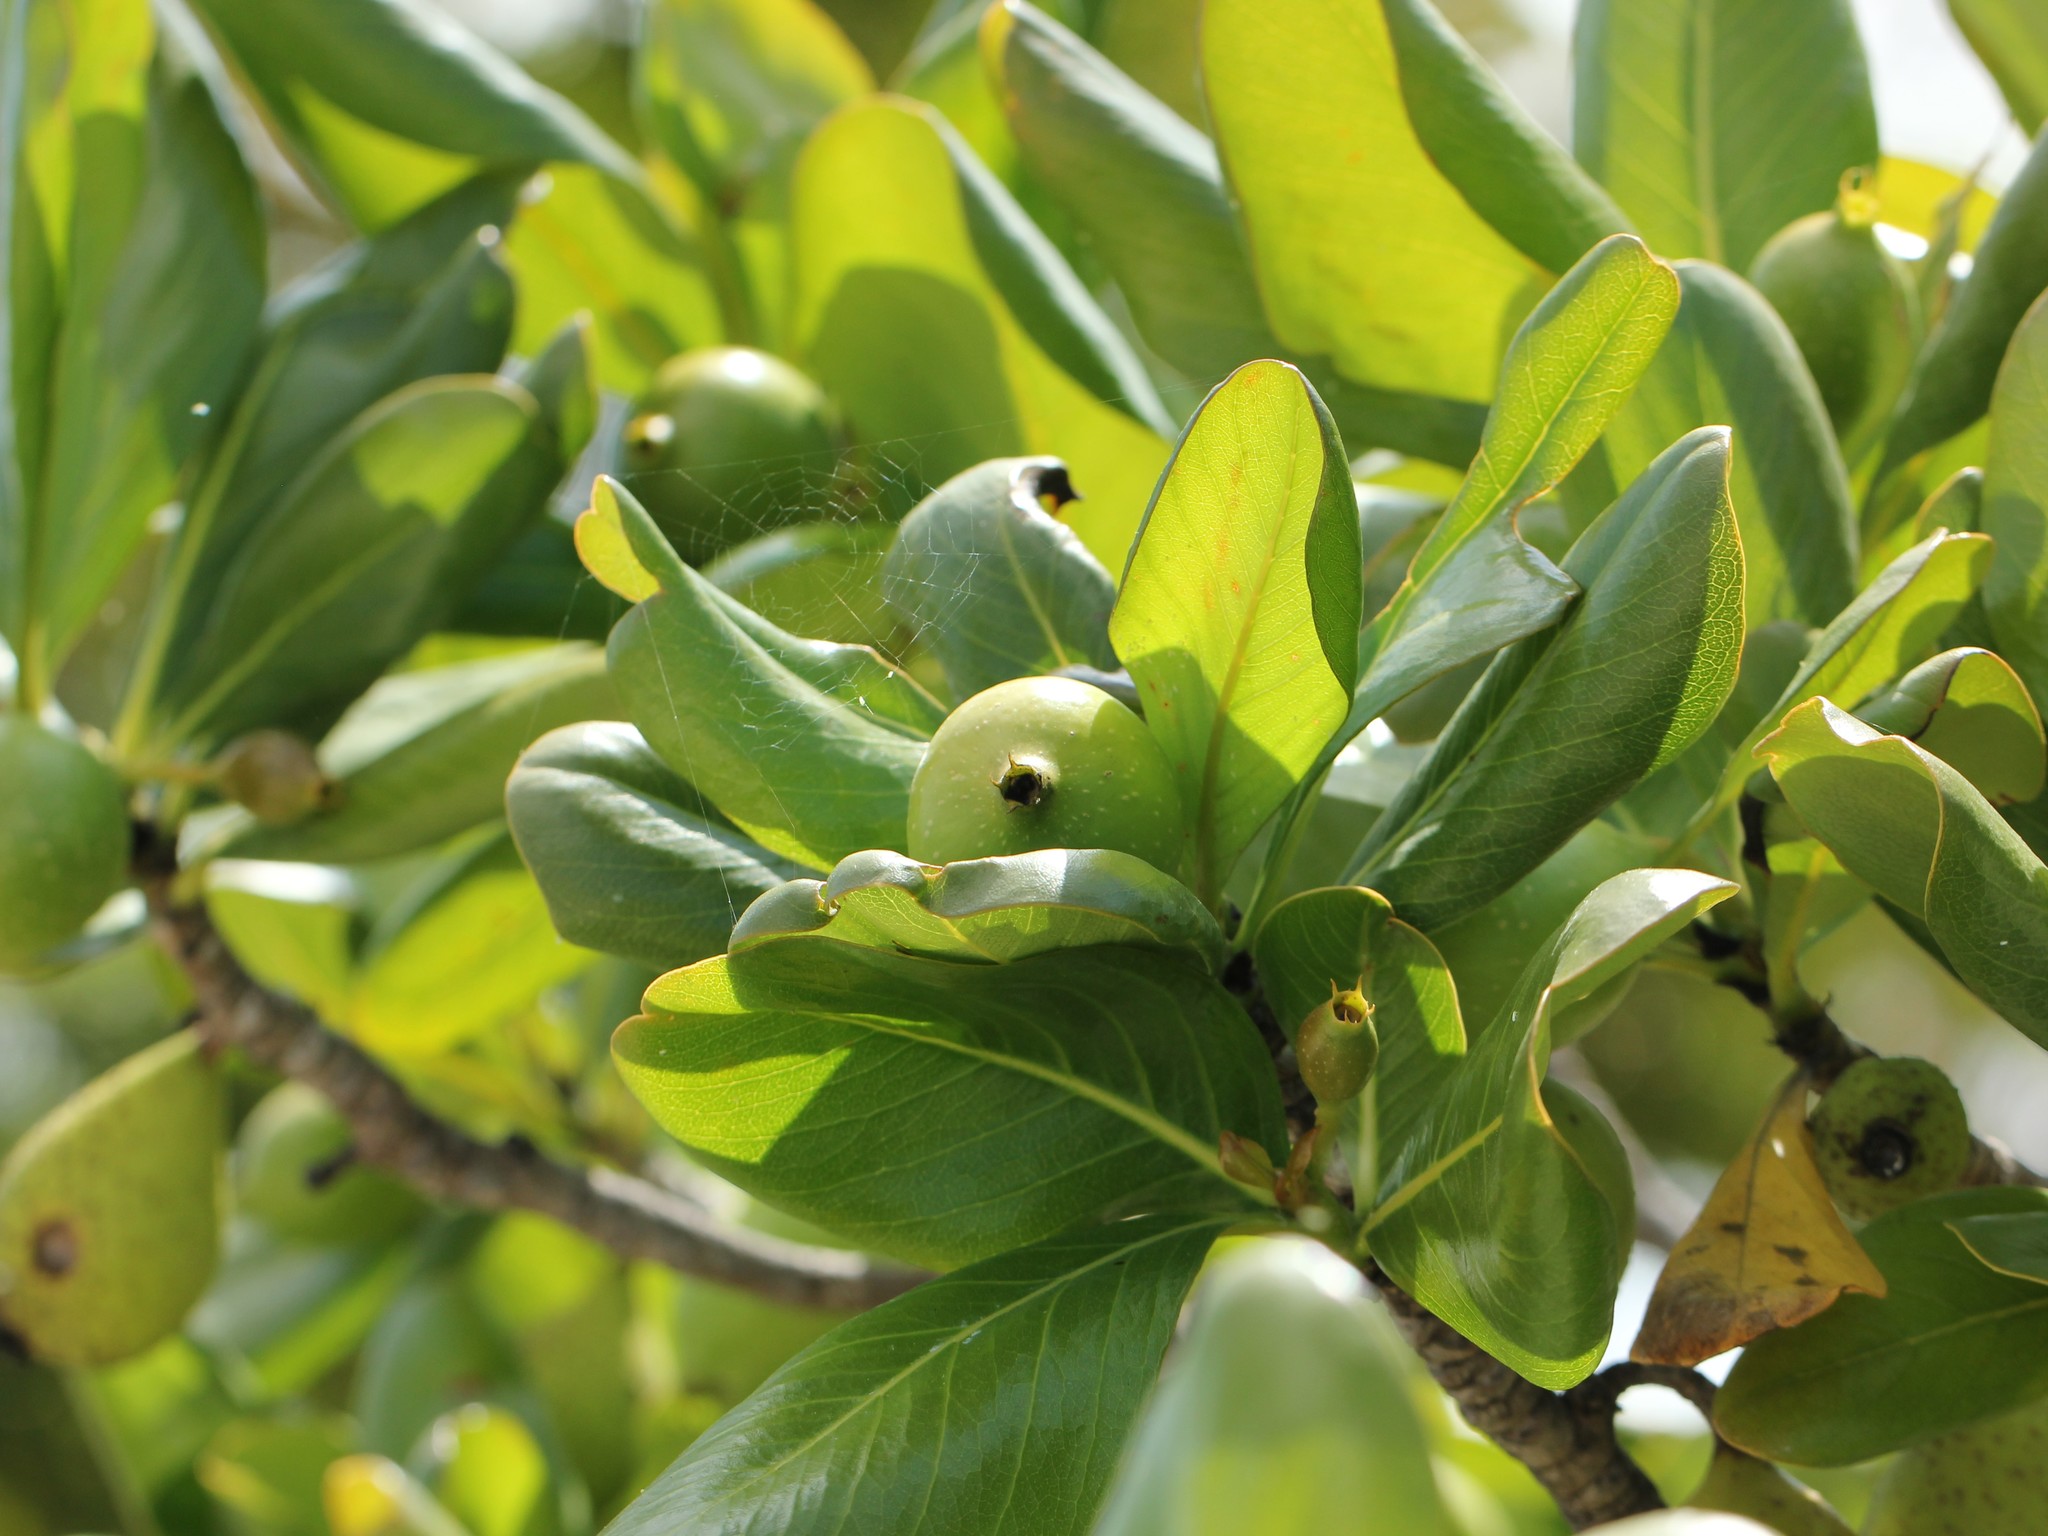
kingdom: Plantae
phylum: Tracheophyta
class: Magnoliopsida
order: Gentianales
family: Rubiaceae
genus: Casasia
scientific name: Casasia clusiifolia
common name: Seven-year apple
